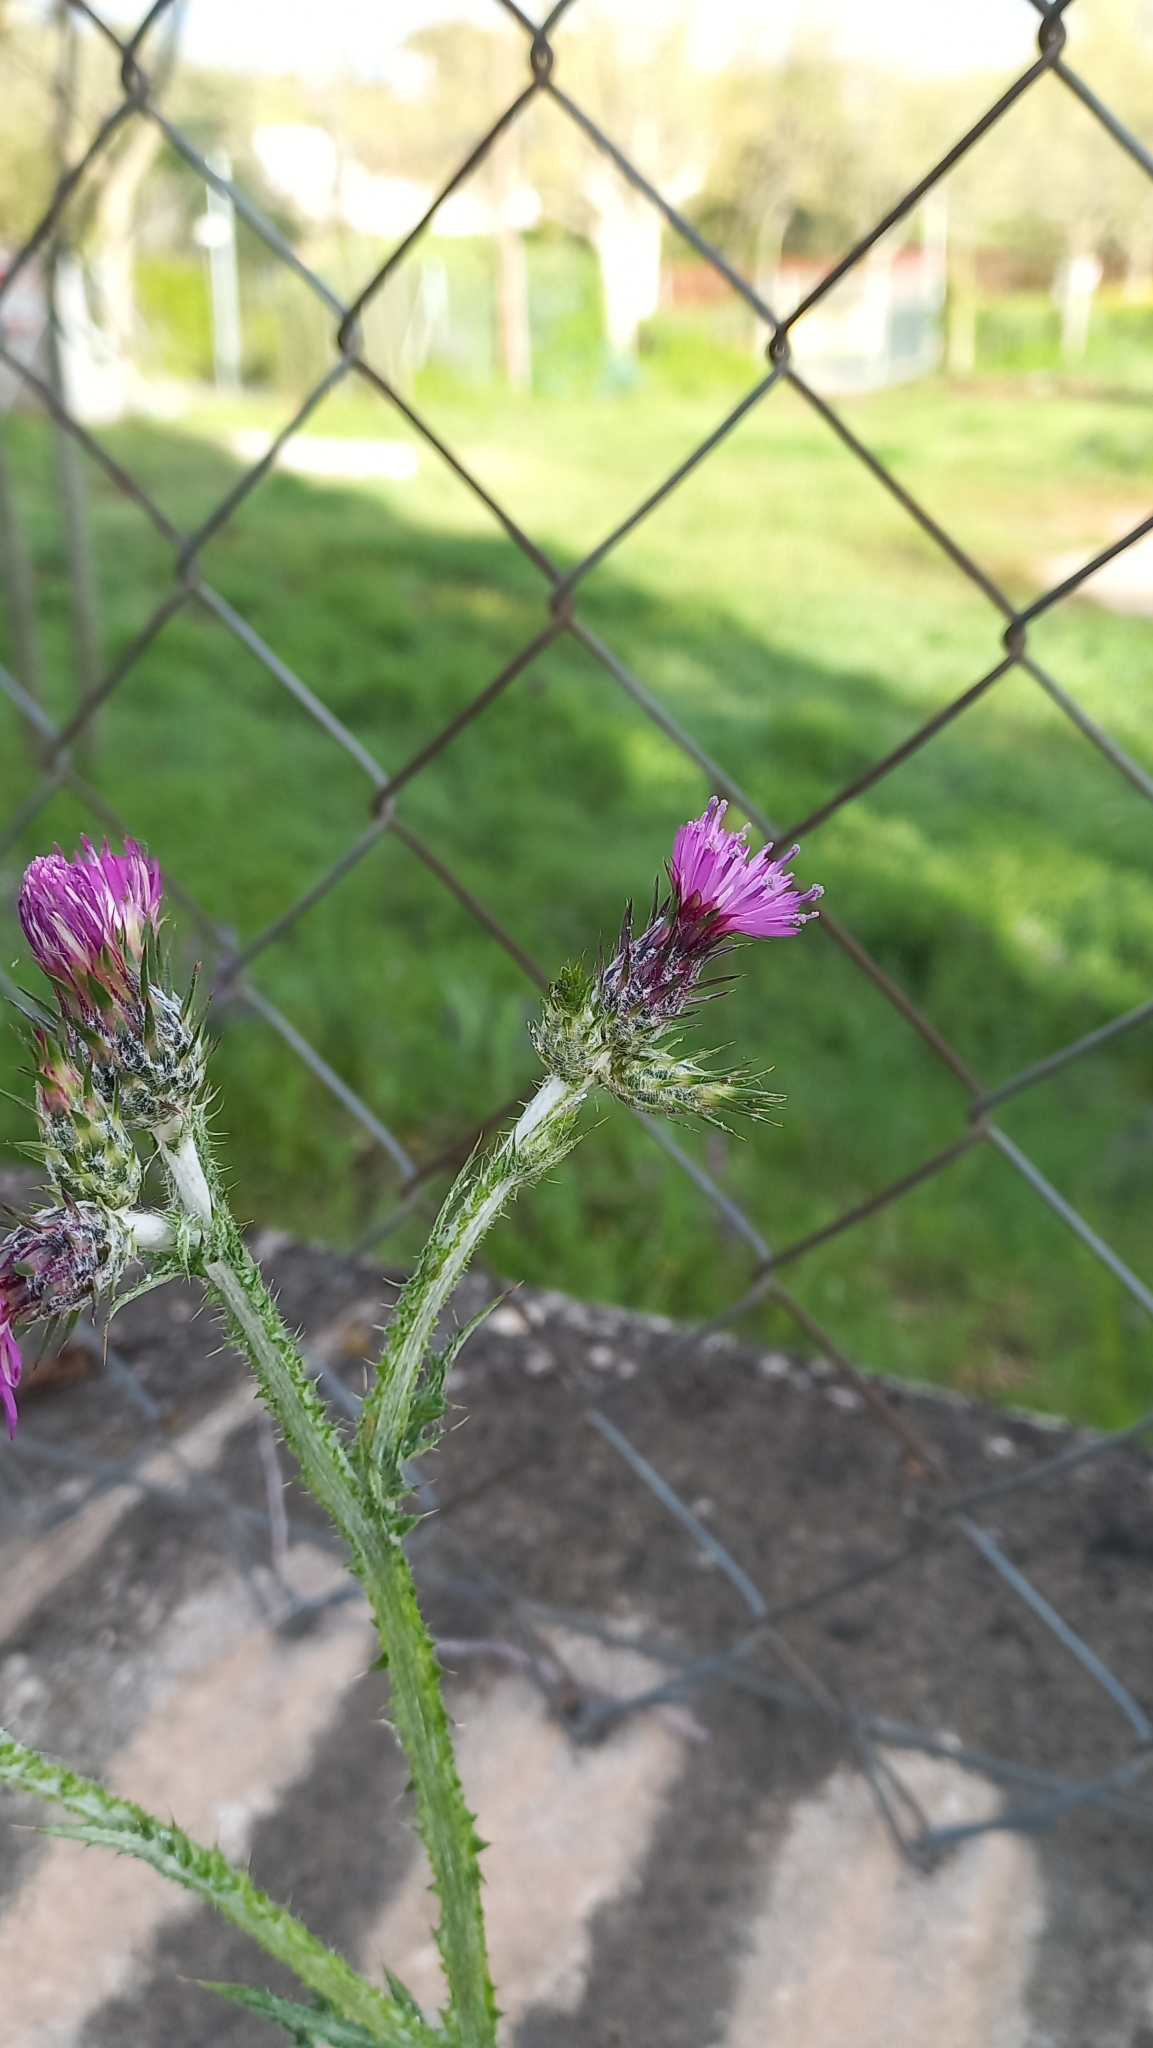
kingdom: Plantae
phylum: Tracheophyta
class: Magnoliopsida
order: Asterales
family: Asteraceae
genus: Carduus
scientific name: Carduus pycnocephalus
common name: Plymouth thistle
